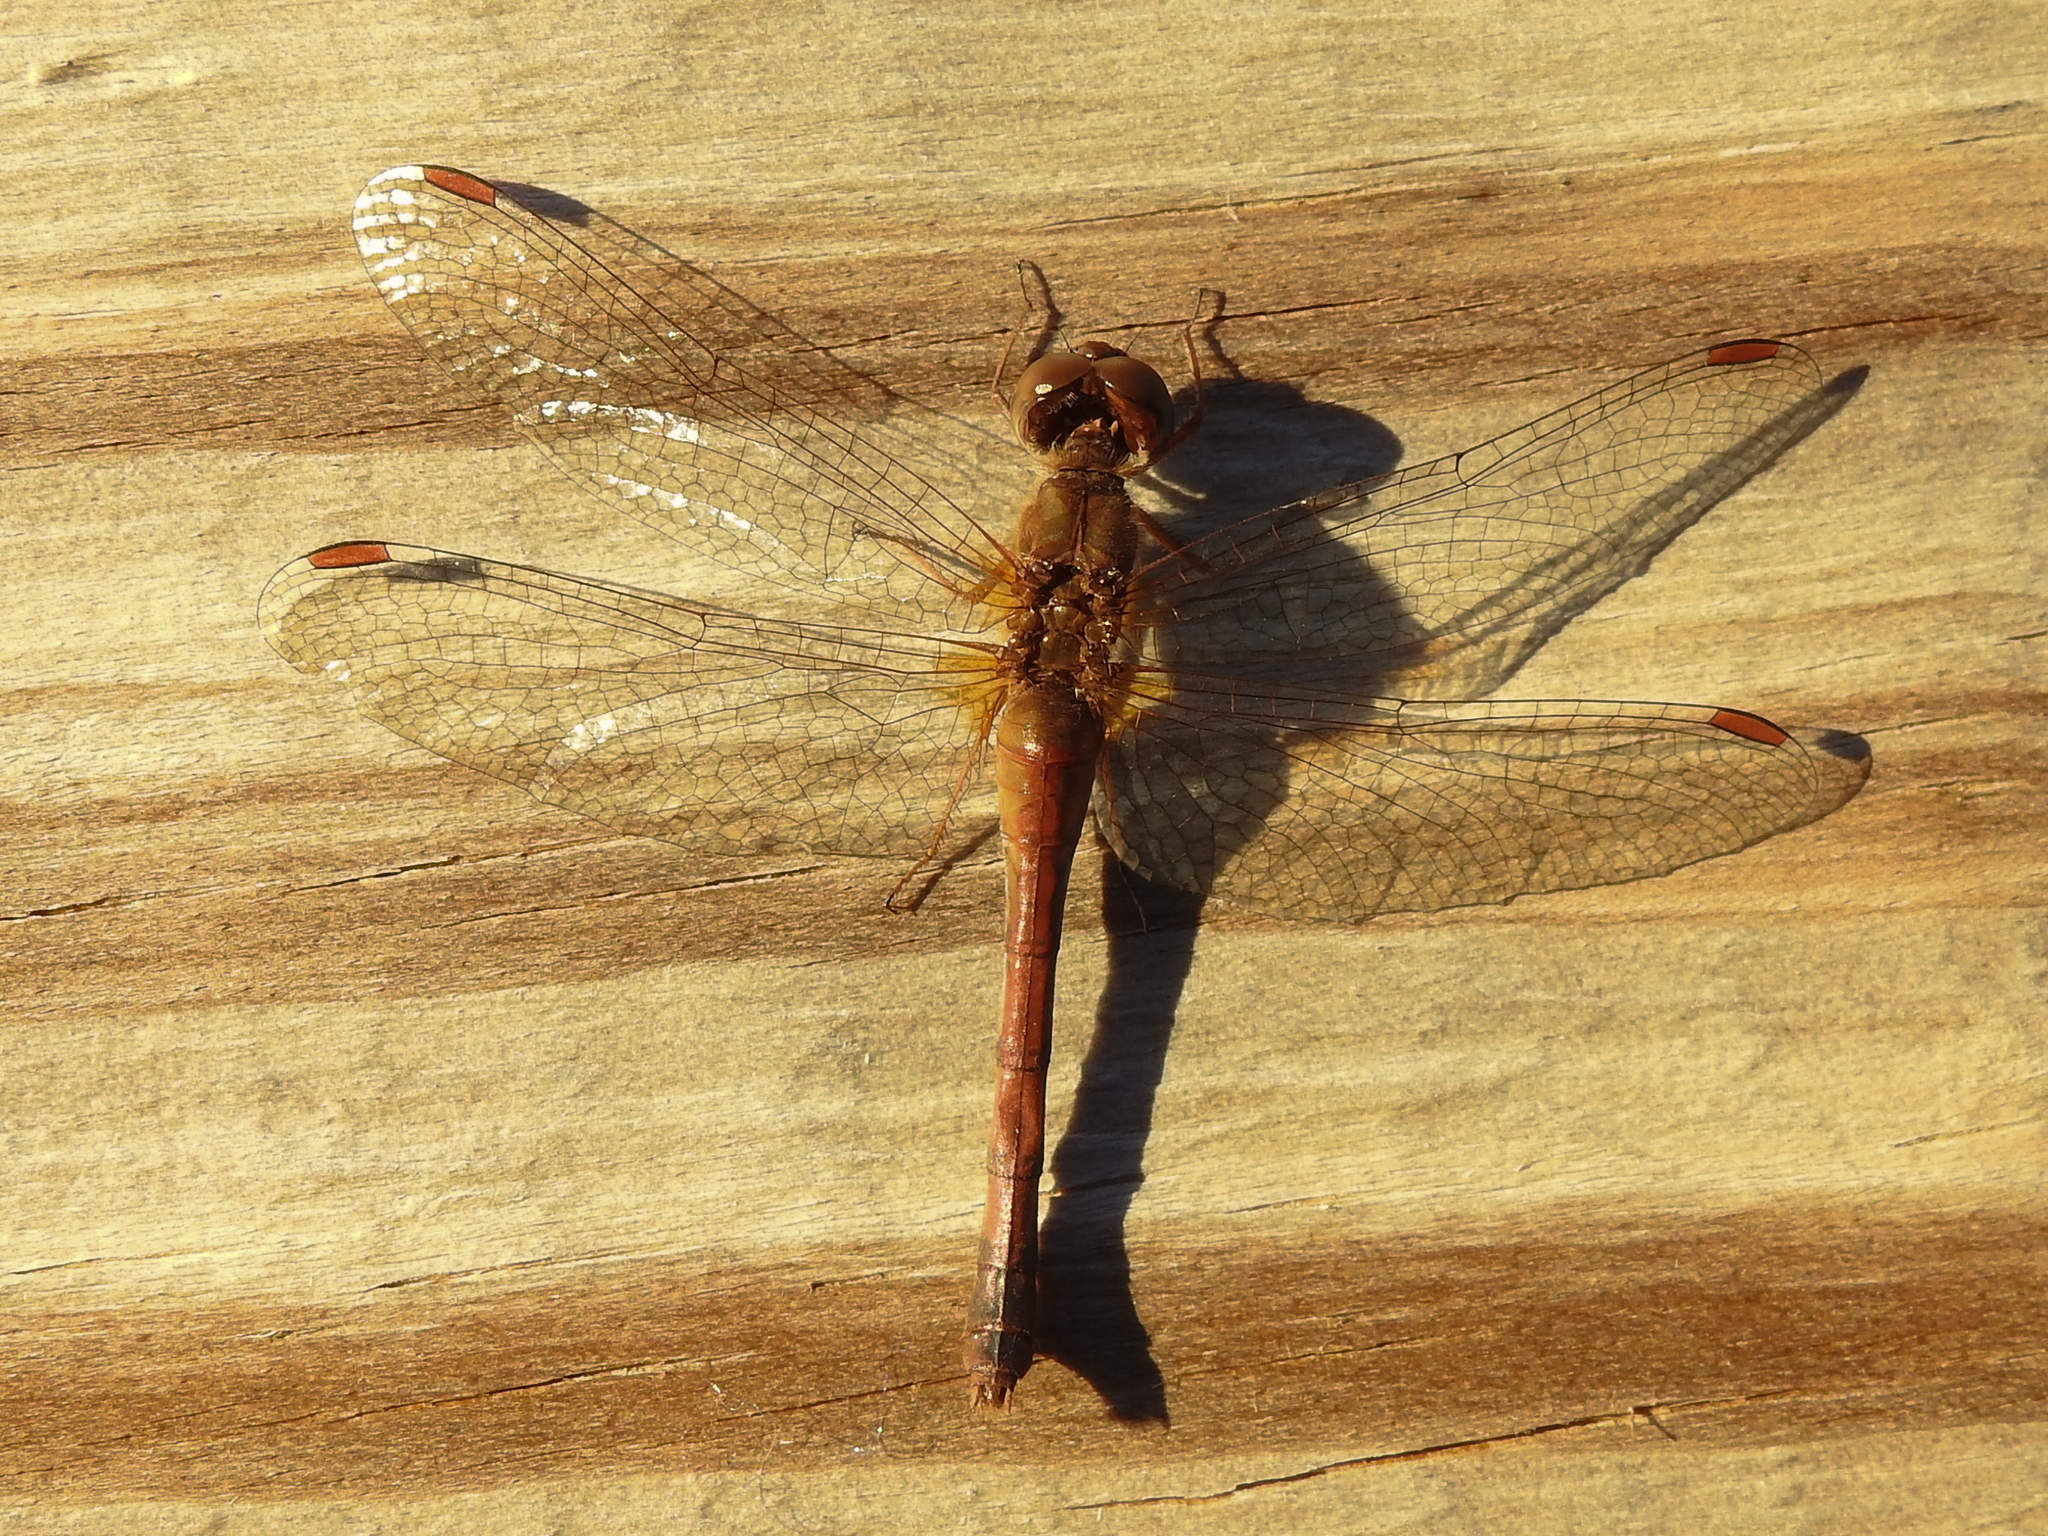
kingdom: Animalia
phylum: Arthropoda
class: Insecta
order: Odonata
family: Libellulidae
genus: Sympetrum
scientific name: Sympetrum vicinum
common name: Autumn meadowhawk
